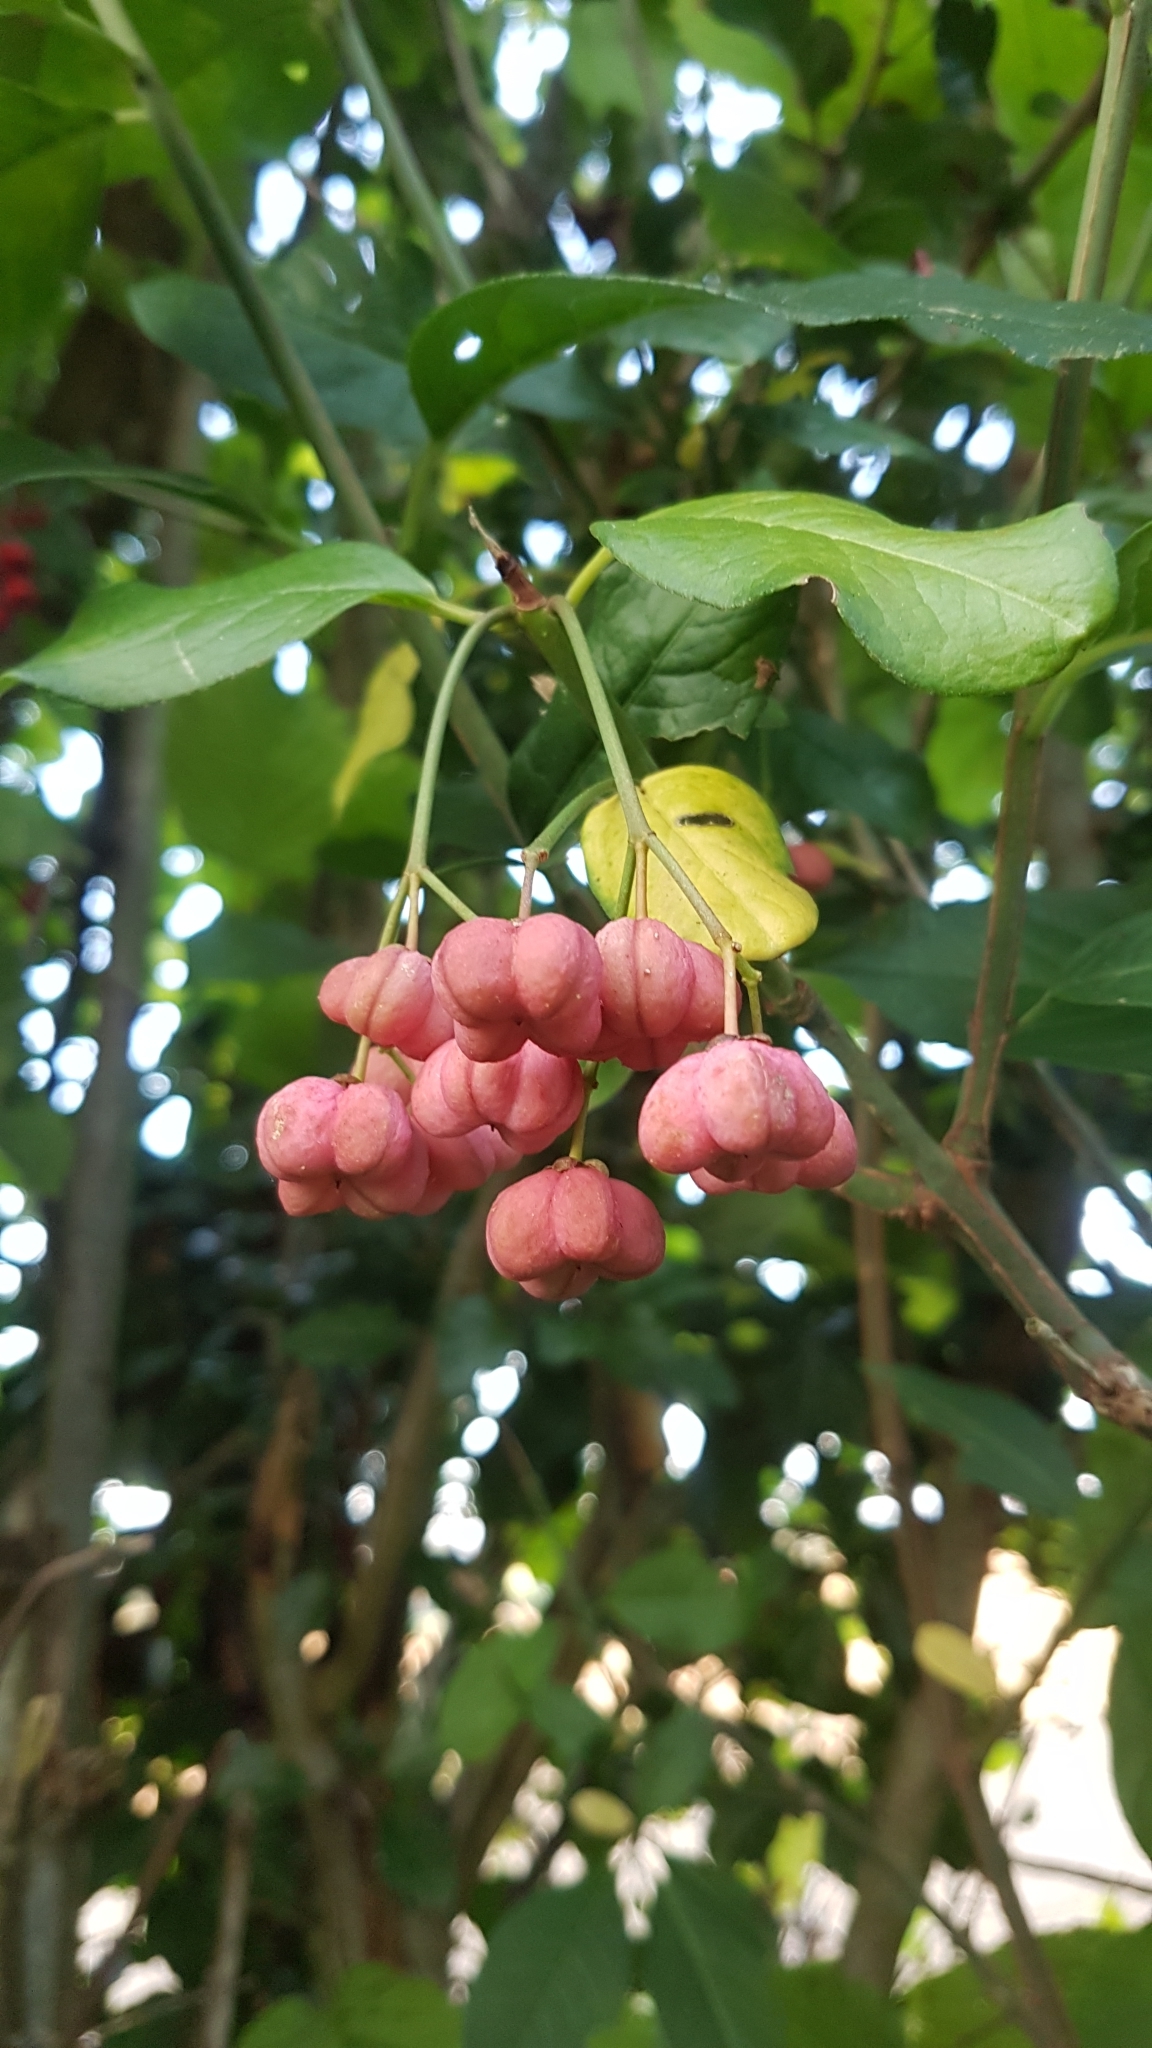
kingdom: Plantae
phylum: Tracheophyta
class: Magnoliopsida
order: Celastrales
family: Celastraceae
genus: Euonymus
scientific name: Euonymus europaeus
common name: Spindle
